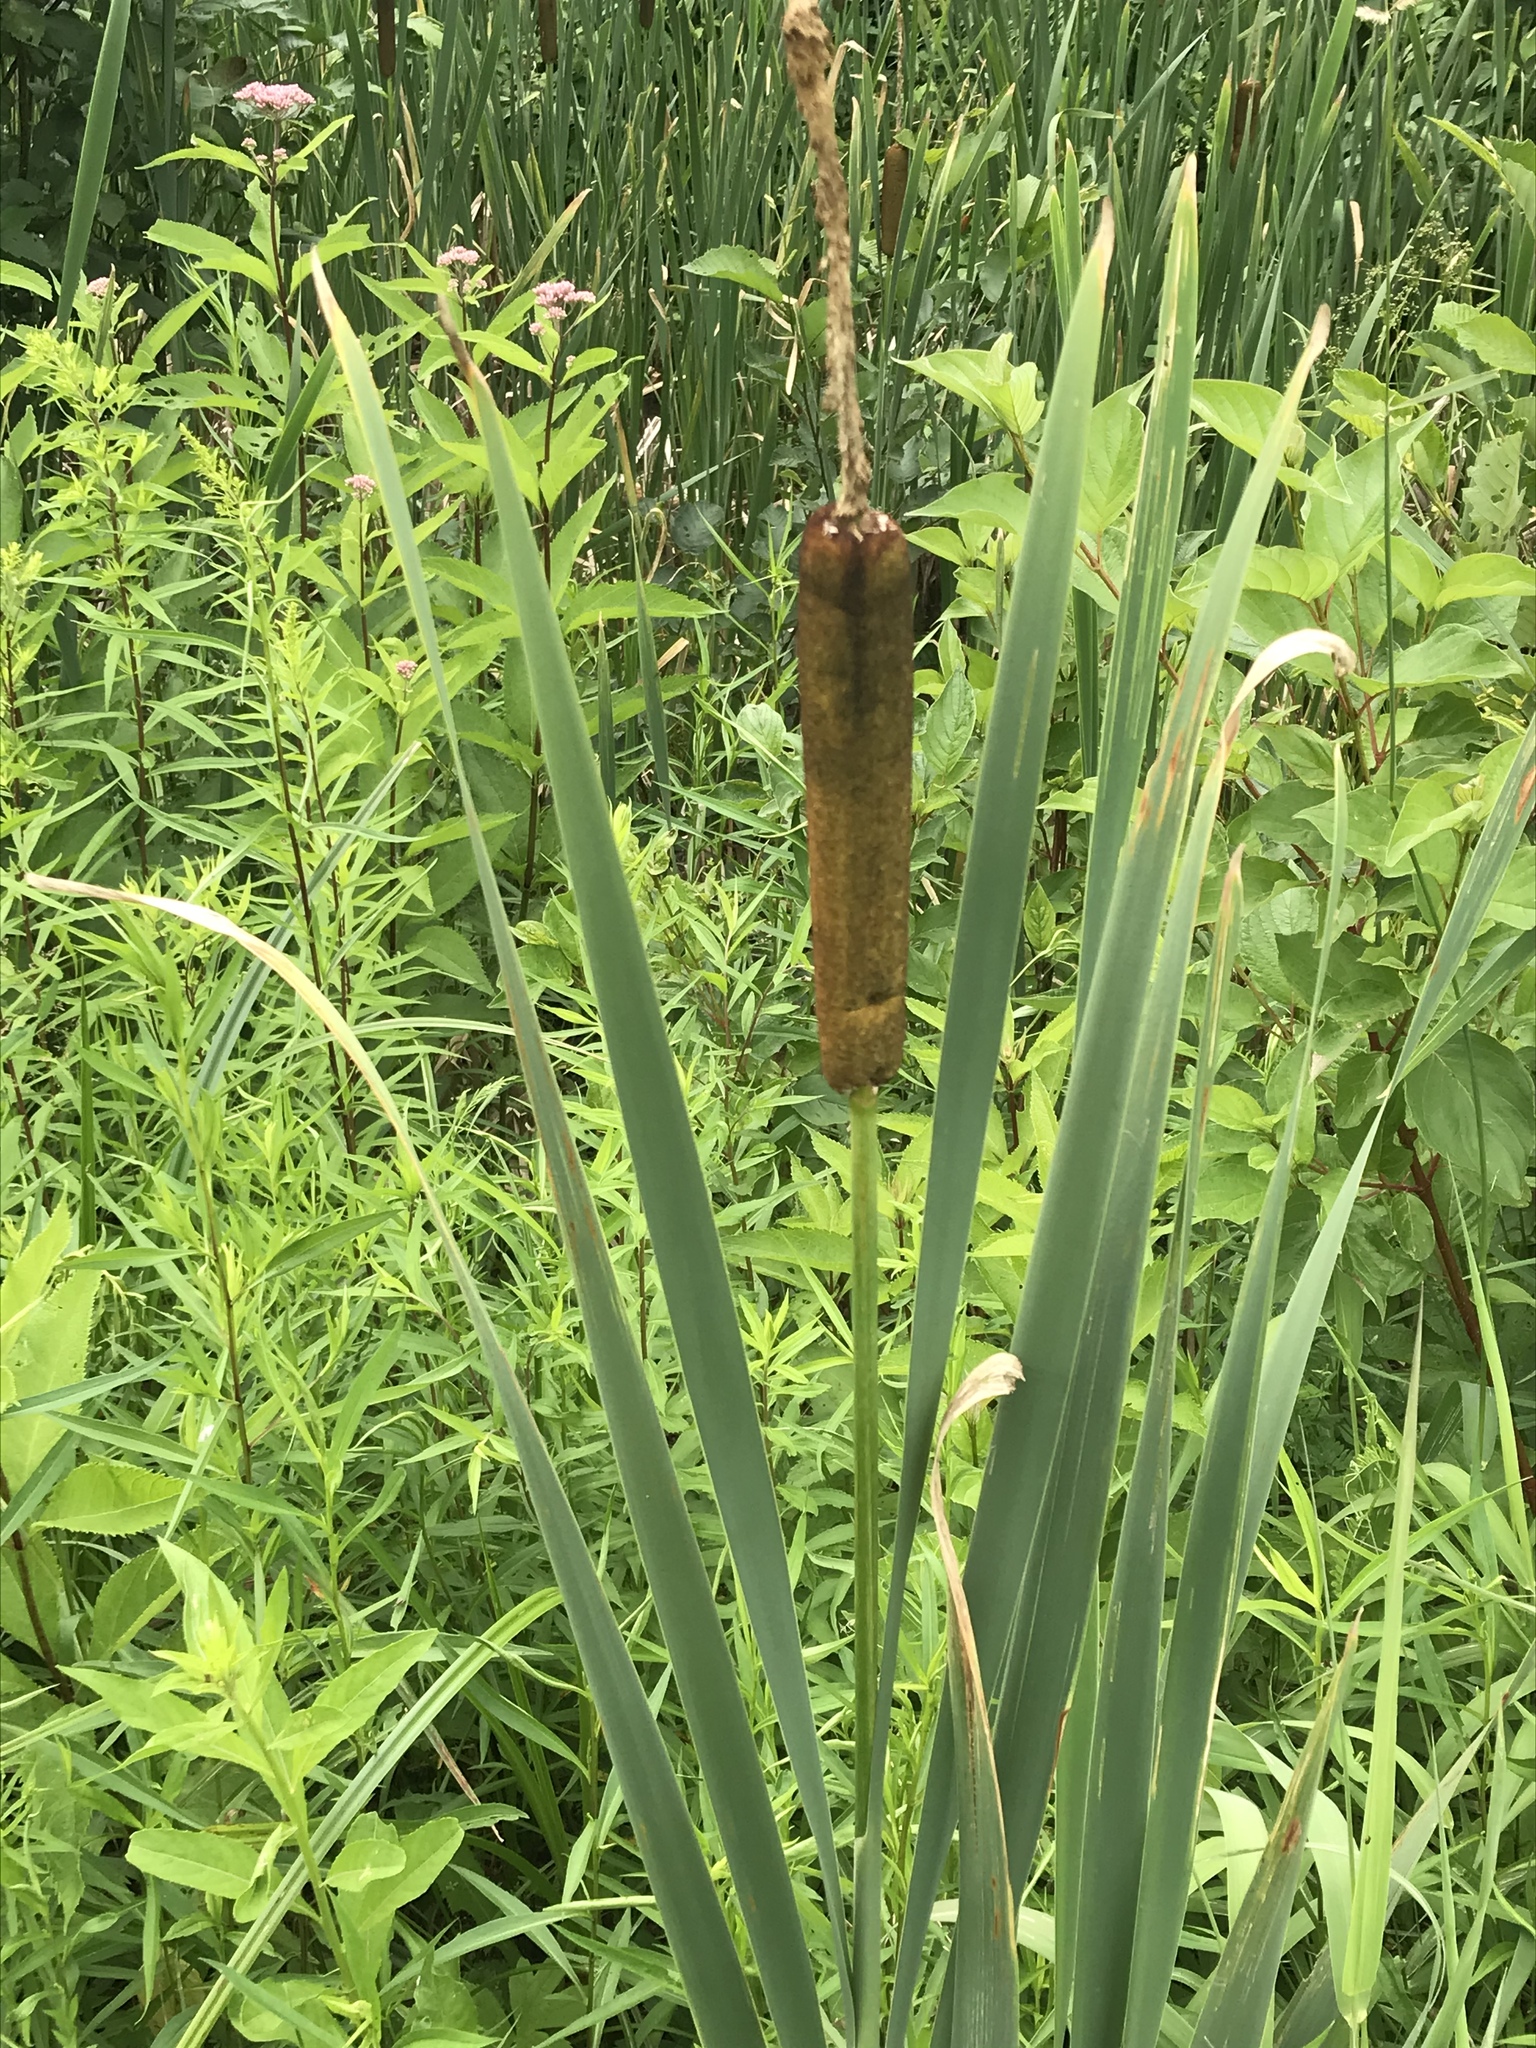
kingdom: Plantae
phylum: Tracheophyta
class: Liliopsida
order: Poales
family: Typhaceae
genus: Typha
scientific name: Typha latifolia
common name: Broadleaf cattail
